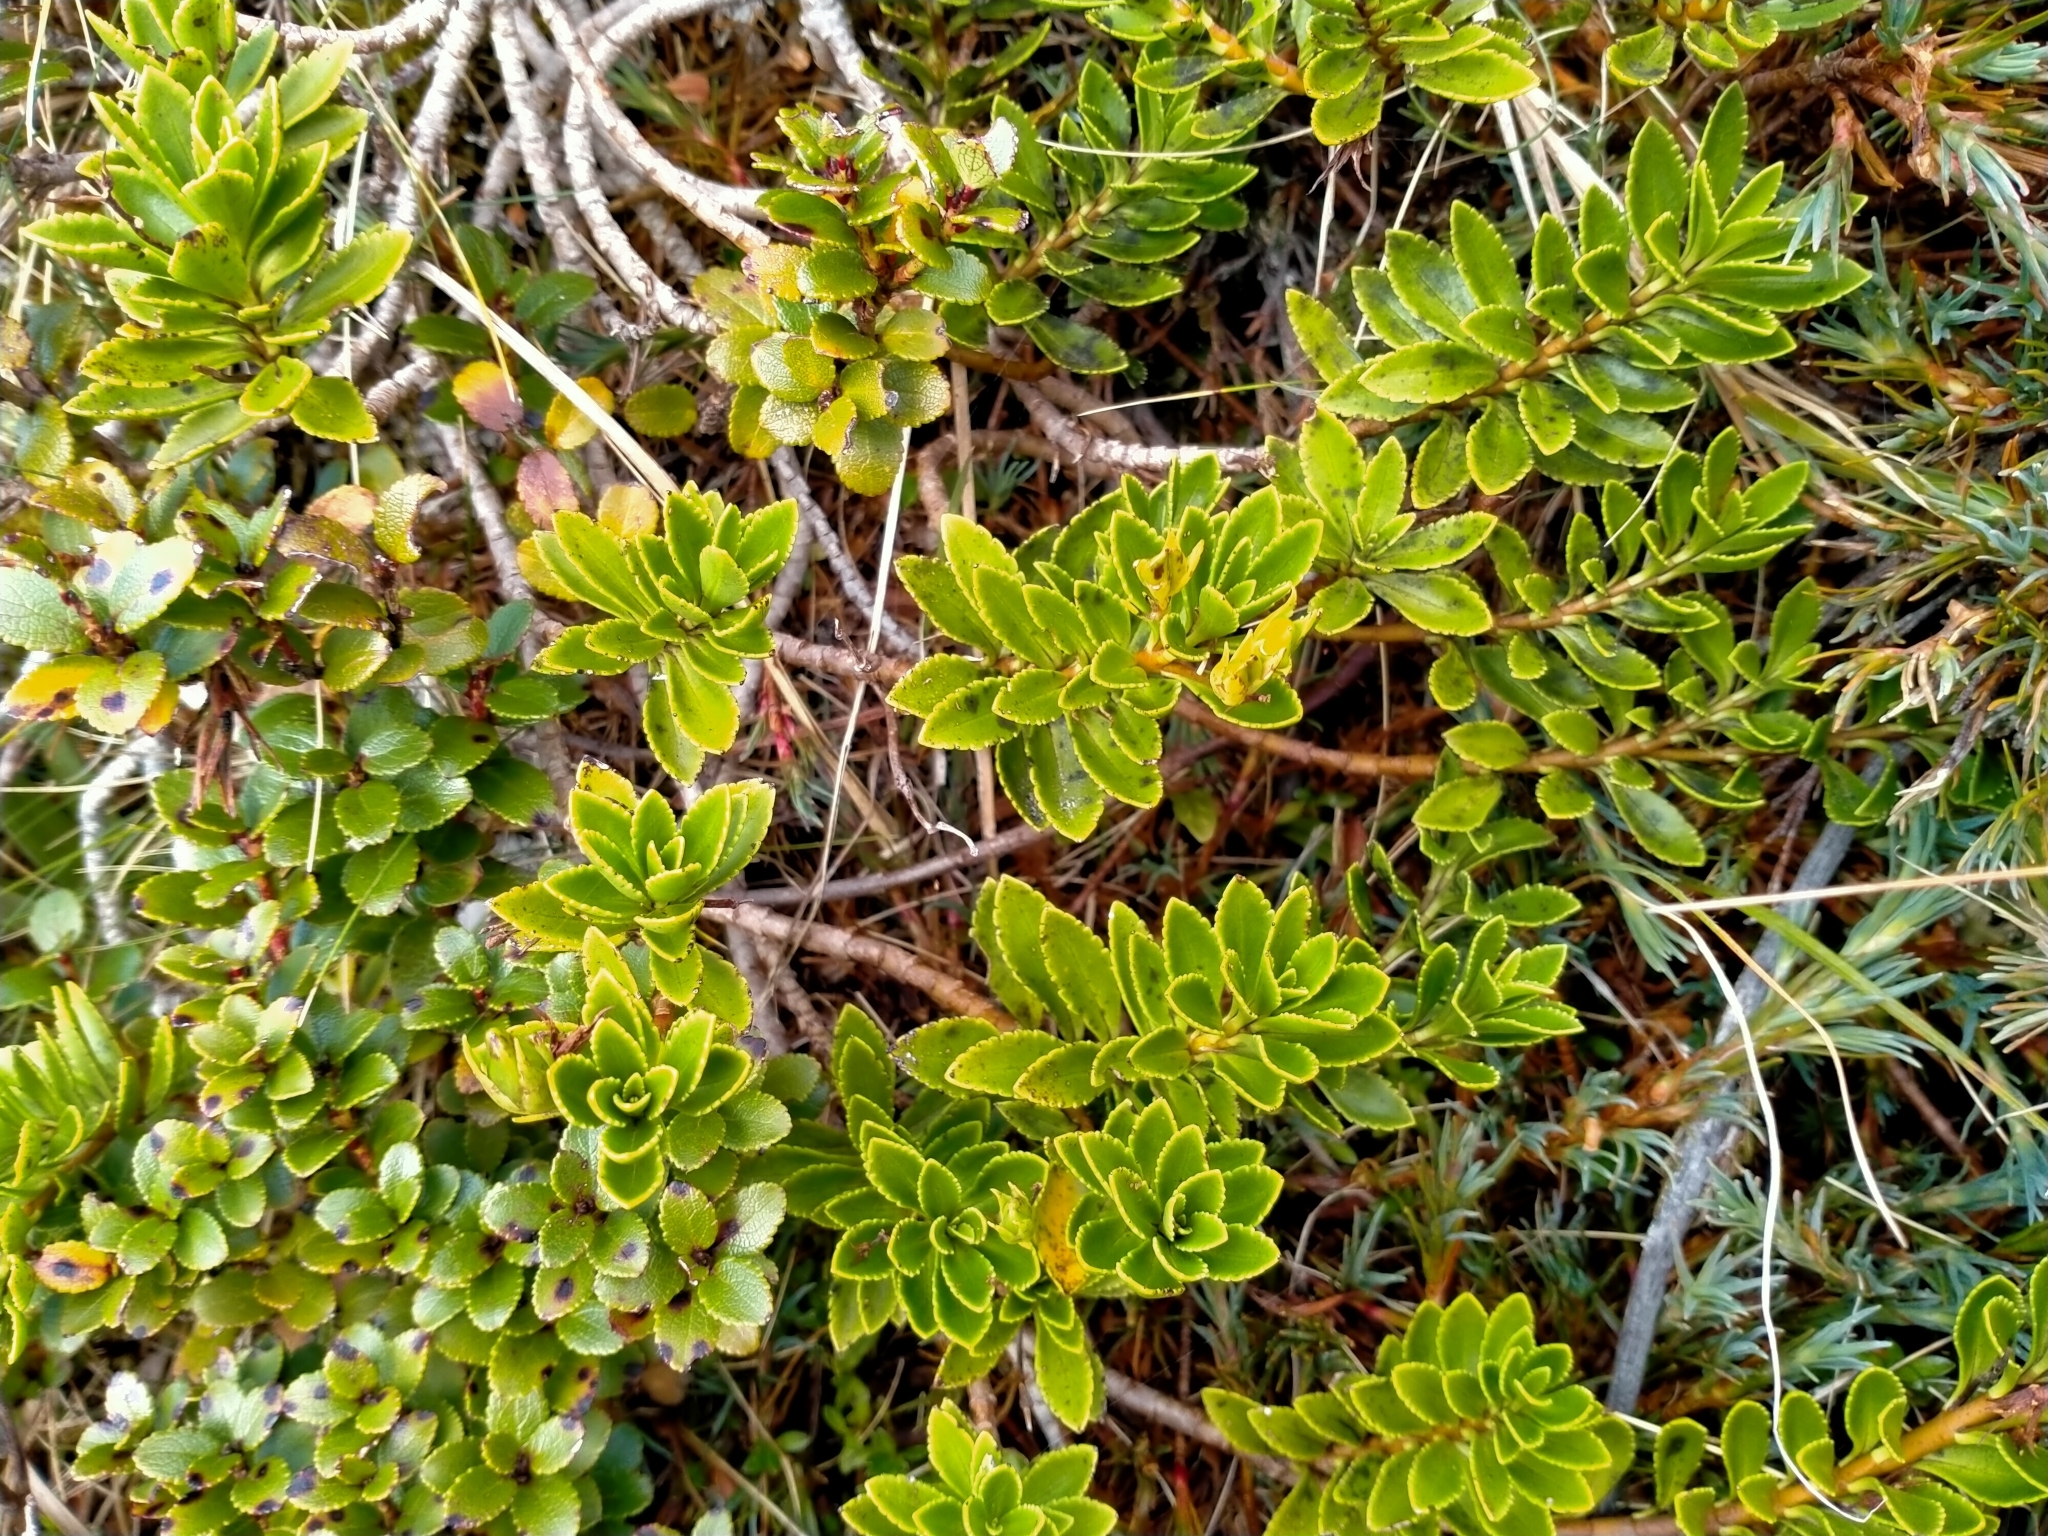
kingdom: Plantae
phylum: Tracheophyta
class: Magnoliopsida
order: Lamiales
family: Plantaginaceae
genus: Veronica
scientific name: Veronica macrantha
